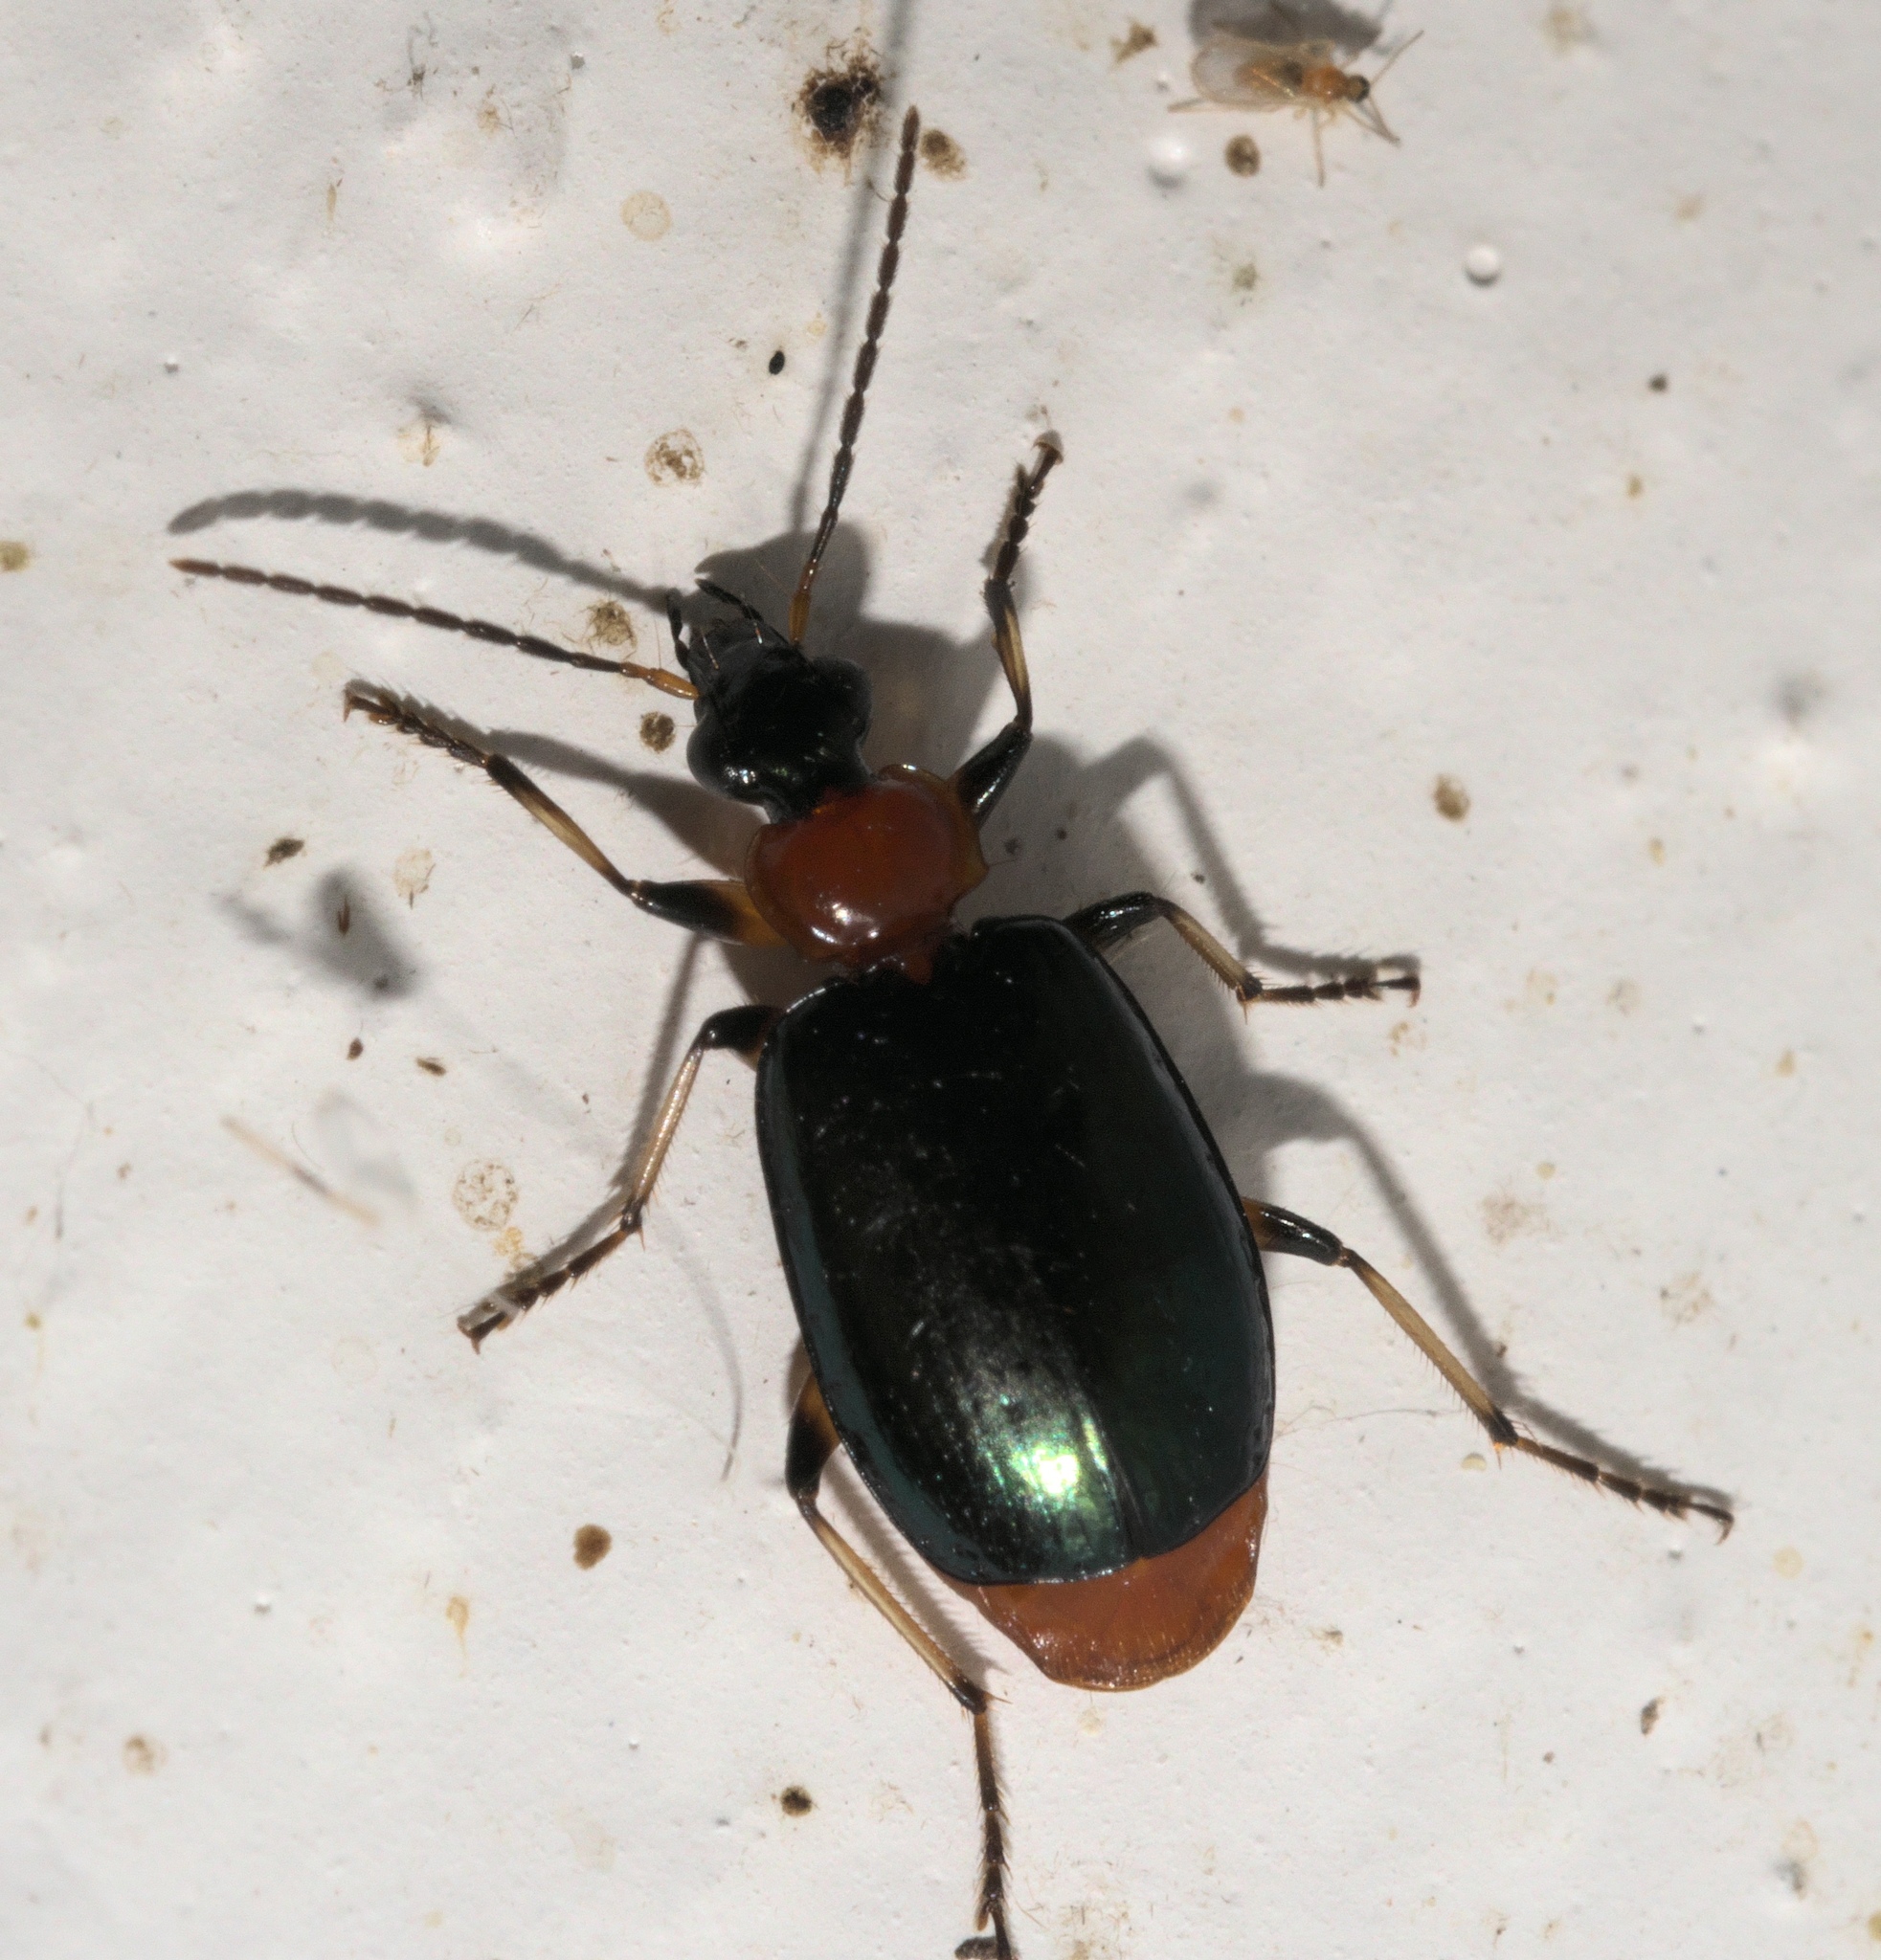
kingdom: Animalia
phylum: Arthropoda
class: Insecta
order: Coleoptera
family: Carabidae
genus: Lebia
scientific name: Lebia viridipennis
